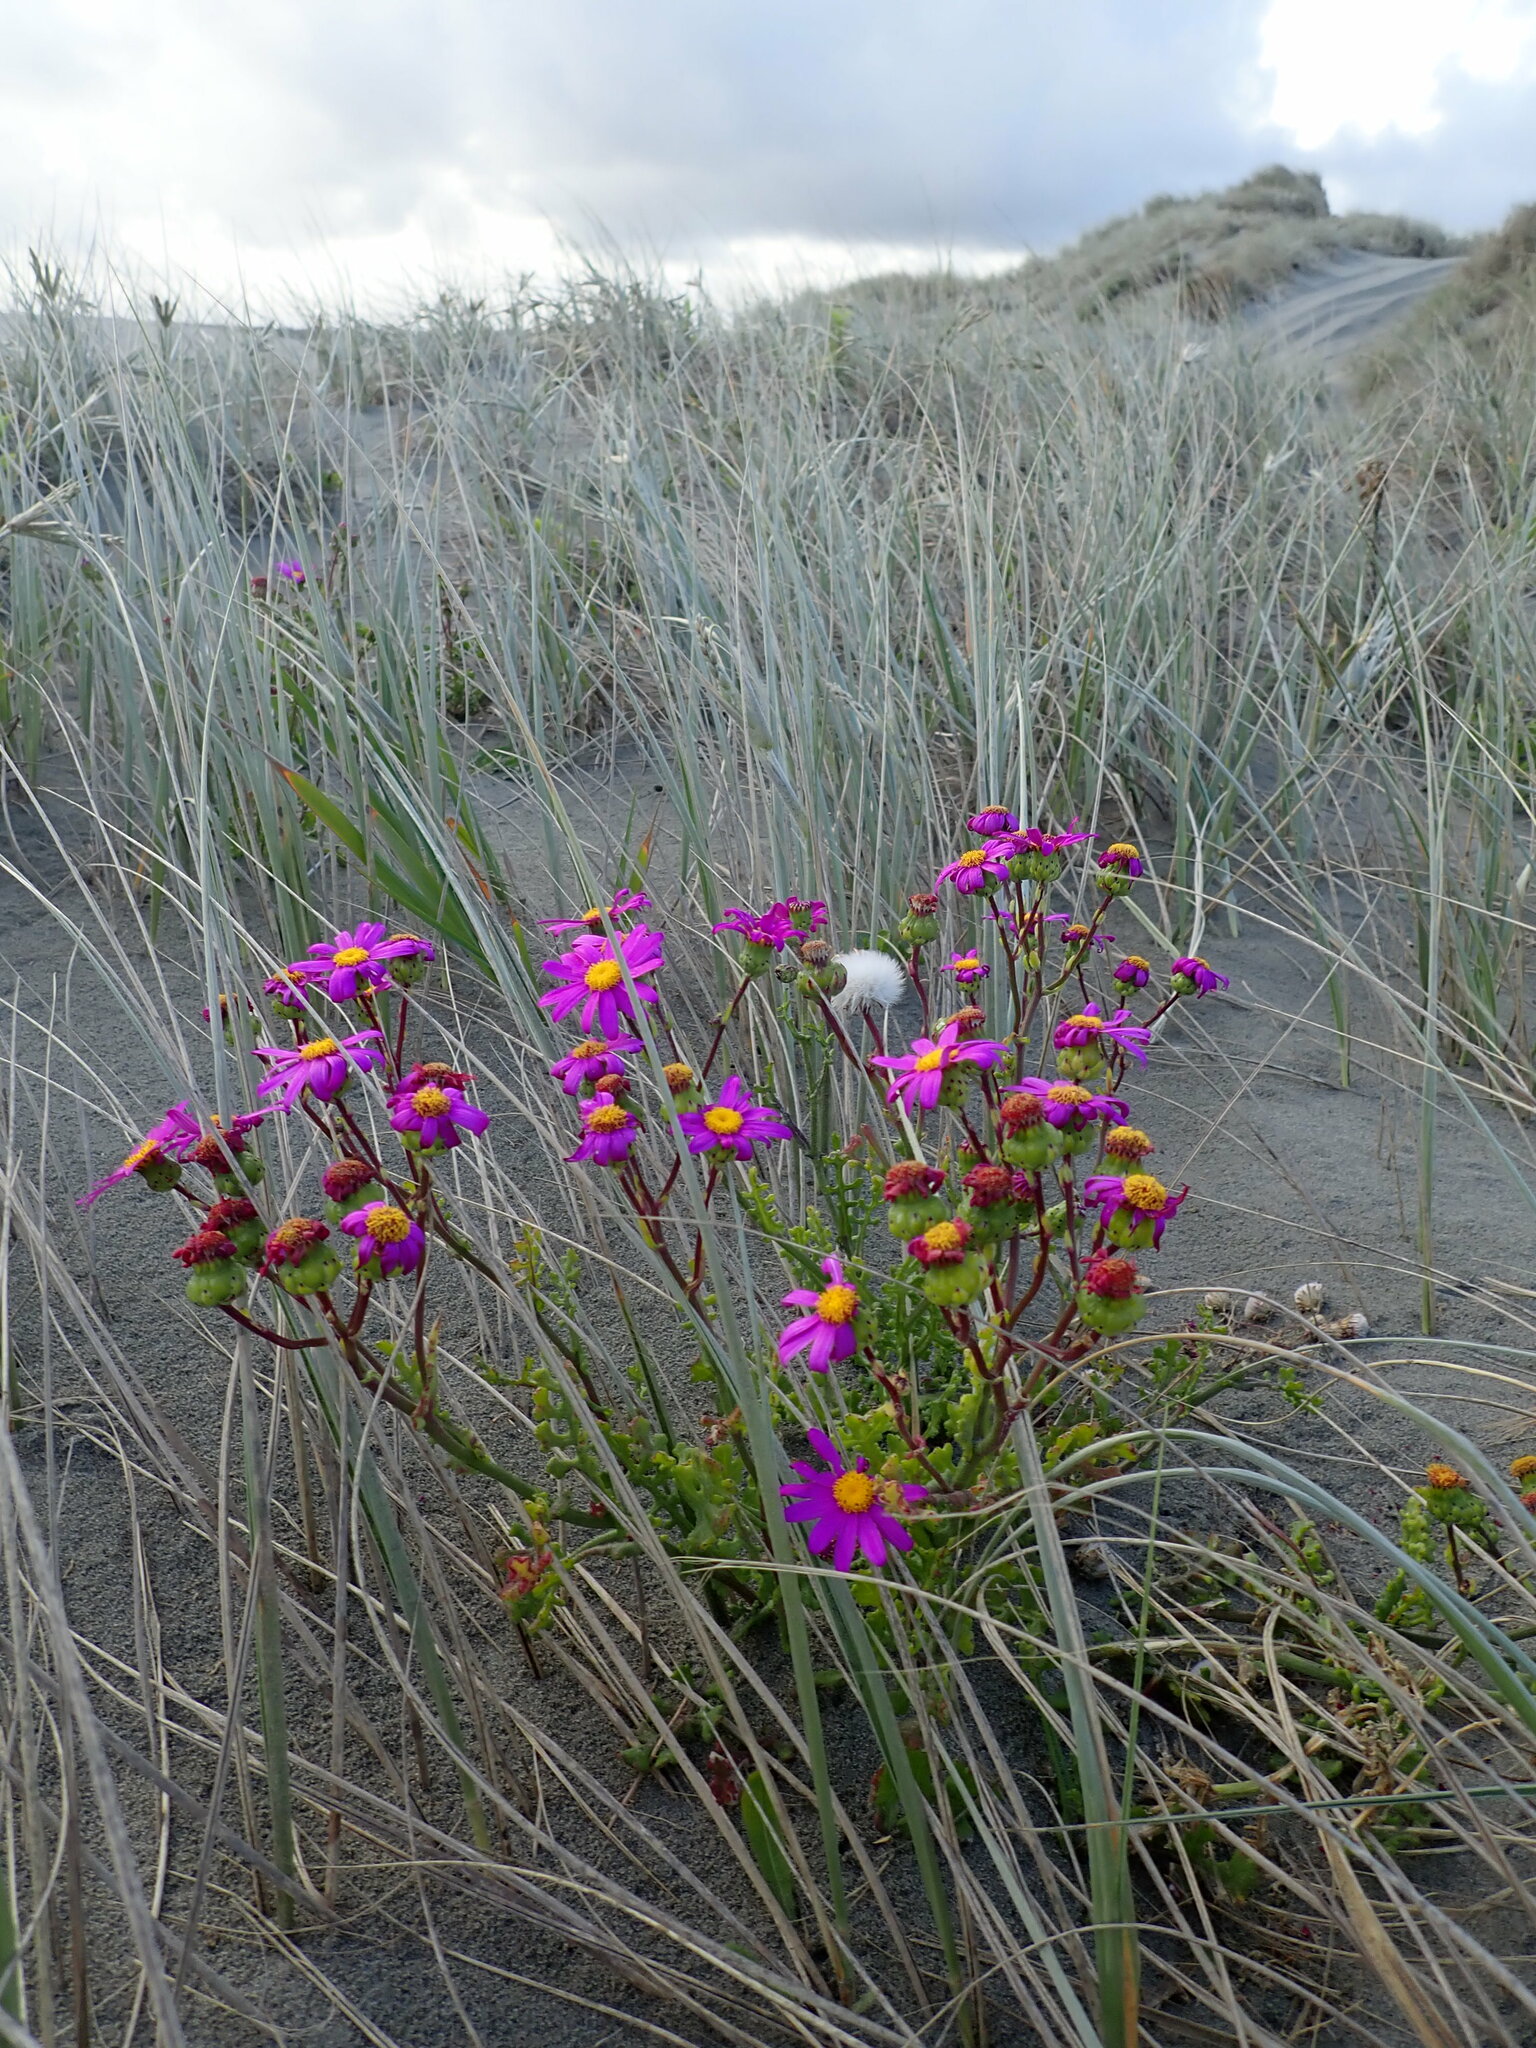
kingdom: Plantae
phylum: Tracheophyta
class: Magnoliopsida
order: Asterales
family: Asteraceae
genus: Senecio
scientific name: Senecio elegans
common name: Purple groundsel
